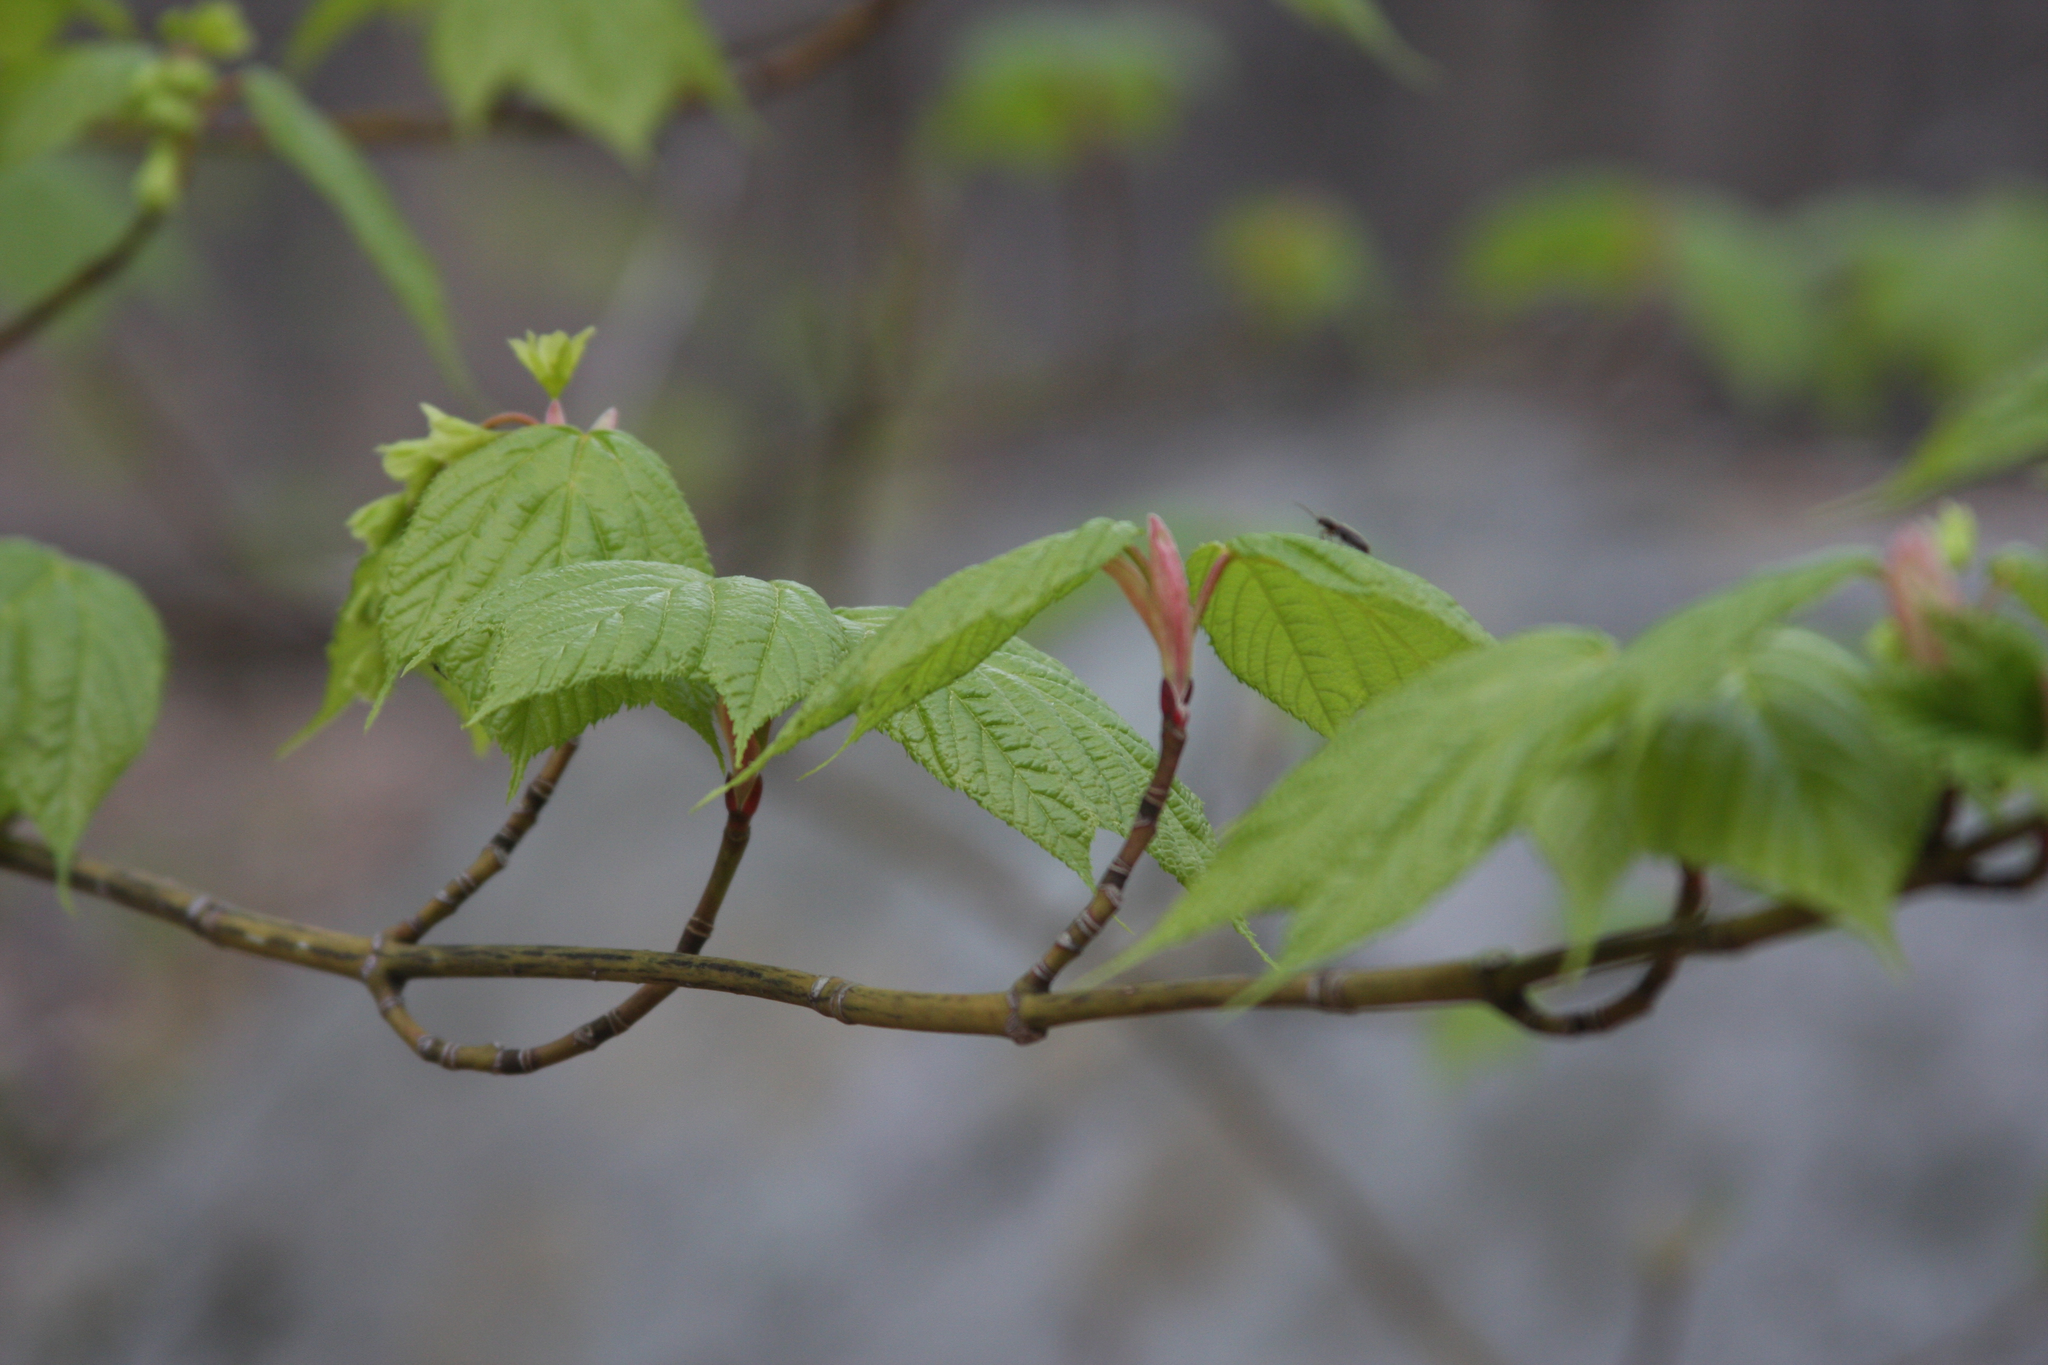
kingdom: Plantae
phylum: Tracheophyta
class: Magnoliopsida
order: Sapindales
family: Sapindaceae
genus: Acer
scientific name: Acer pensylvanicum
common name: Moosewood
